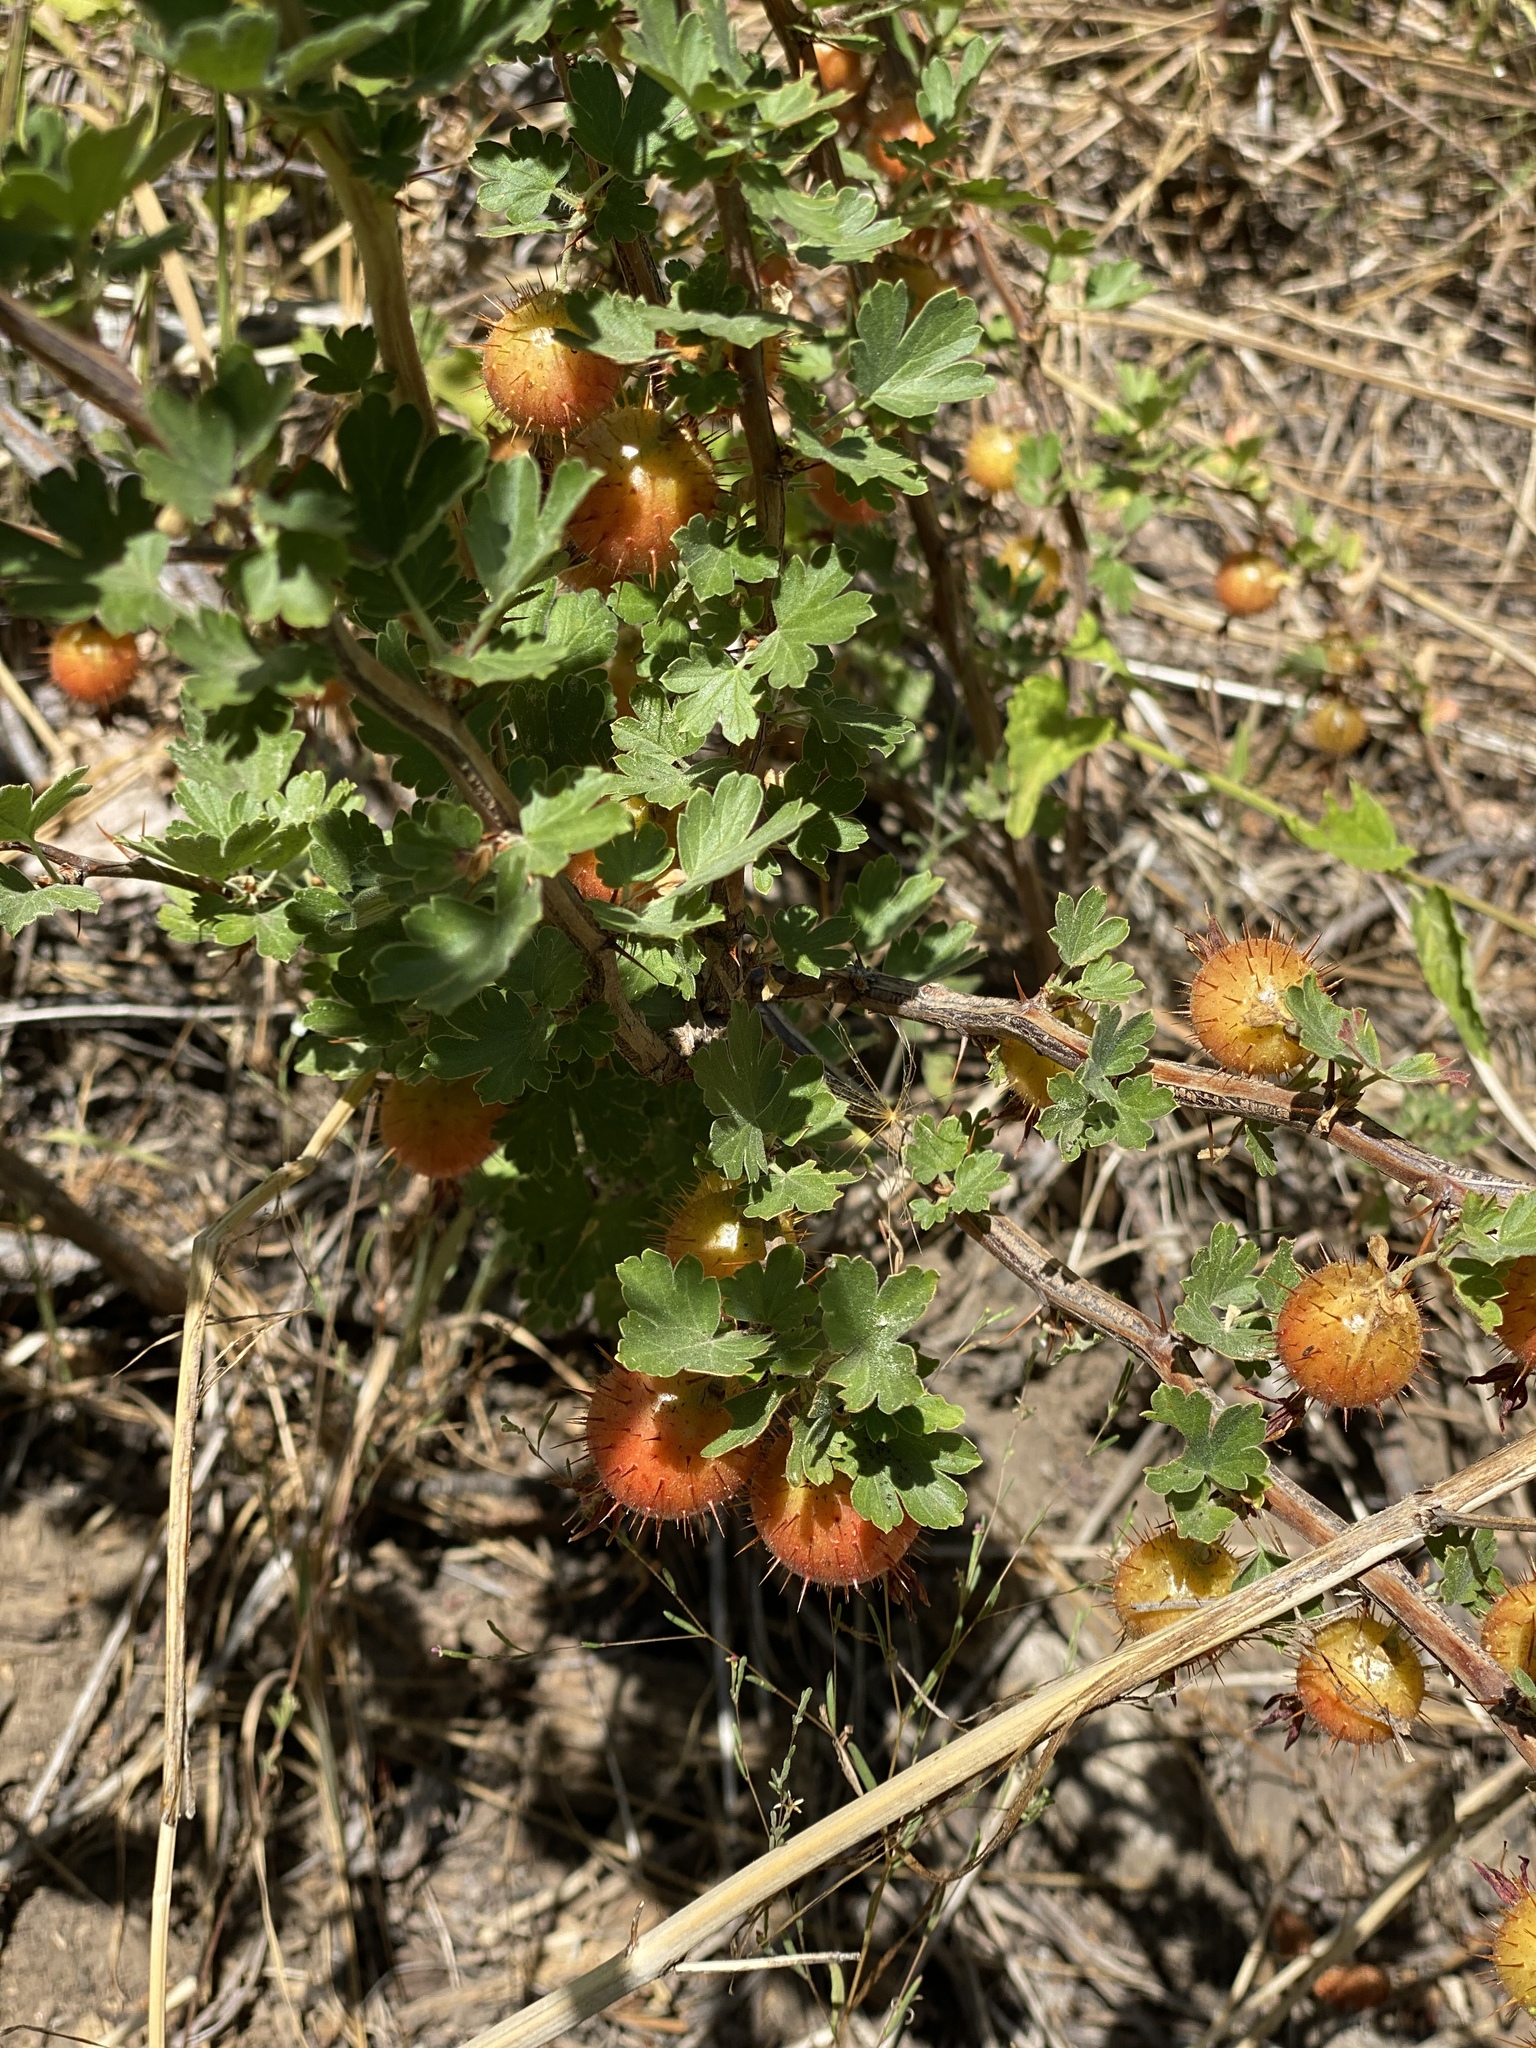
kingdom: Plantae
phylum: Tracheophyta
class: Magnoliopsida
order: Saxifragales
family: Grossulariaceae
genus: Ribes
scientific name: Ribes roezlii
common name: Sierra gooseberry
